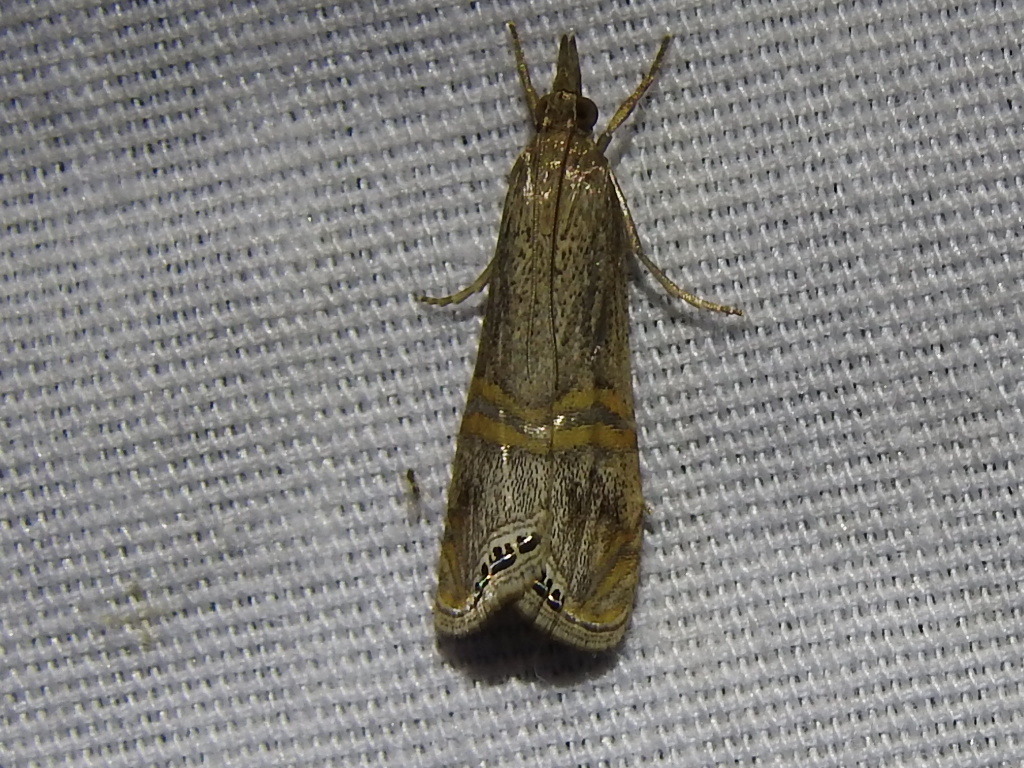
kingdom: Animalia
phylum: Arthropoda
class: Insecta
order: Lepidoptera
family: Crambidae
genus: Euchromius
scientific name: Euchromius ocellea
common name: Necklace veneer moth
